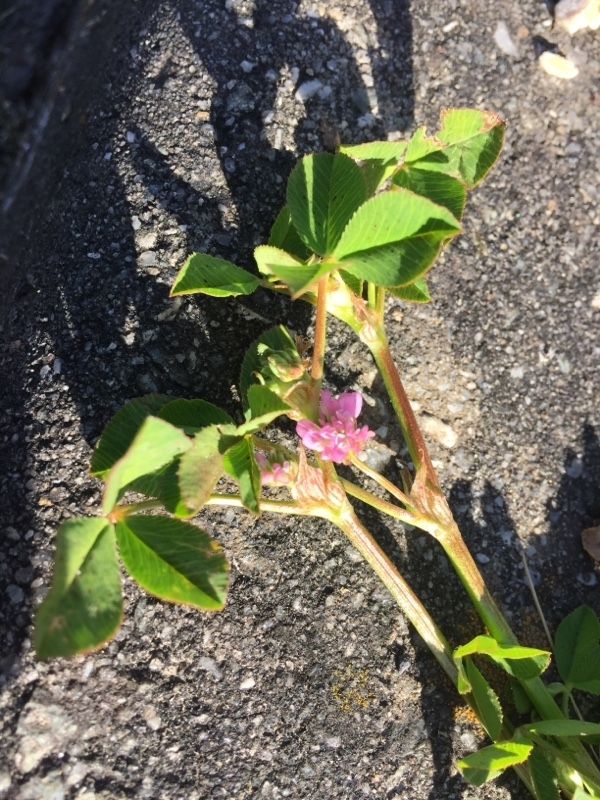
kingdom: Plantae
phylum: Tracheophyta
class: Magnoliopsida
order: Fabales
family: Fabaceae
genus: Trifolium
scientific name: Trifolium resupinatum
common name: Reversed clover
